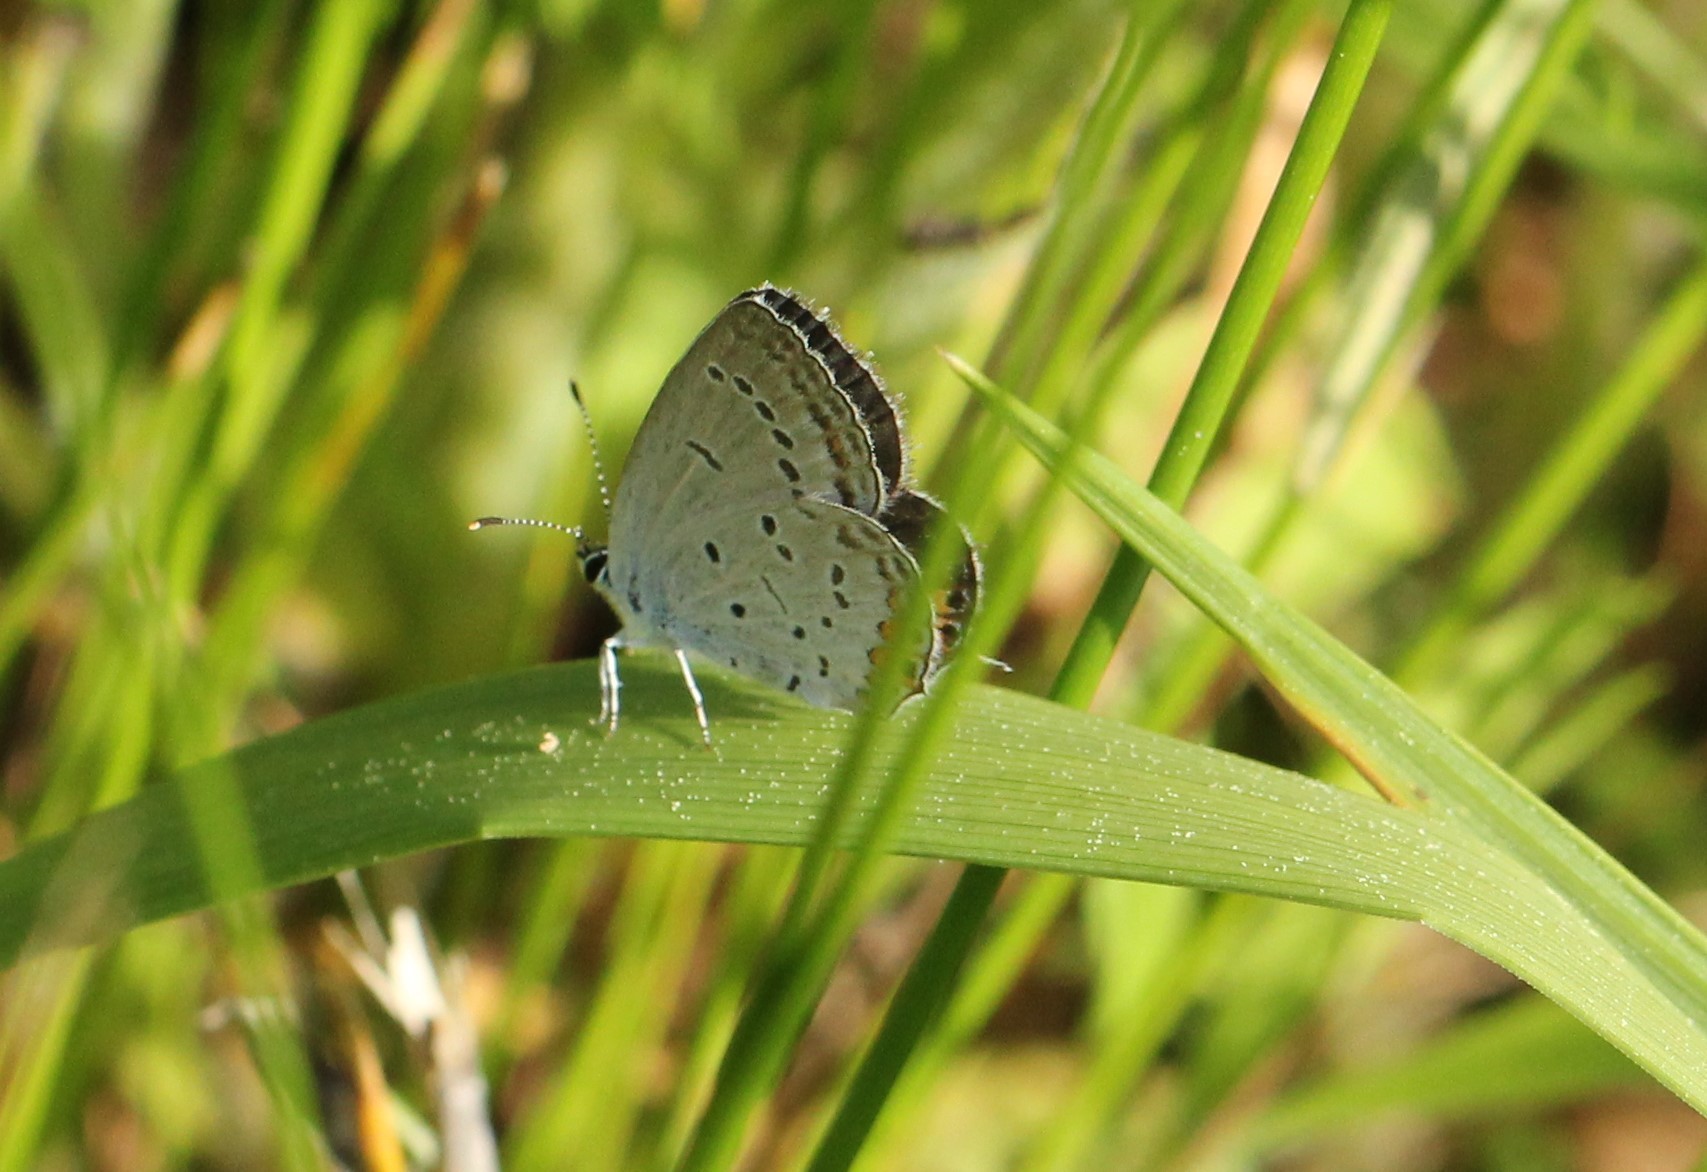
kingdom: Animalia
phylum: Arthropoda
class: Insecta
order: Lepidoptera
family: Lycaenidae
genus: Elkalyce
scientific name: Elkalyce comyntas
